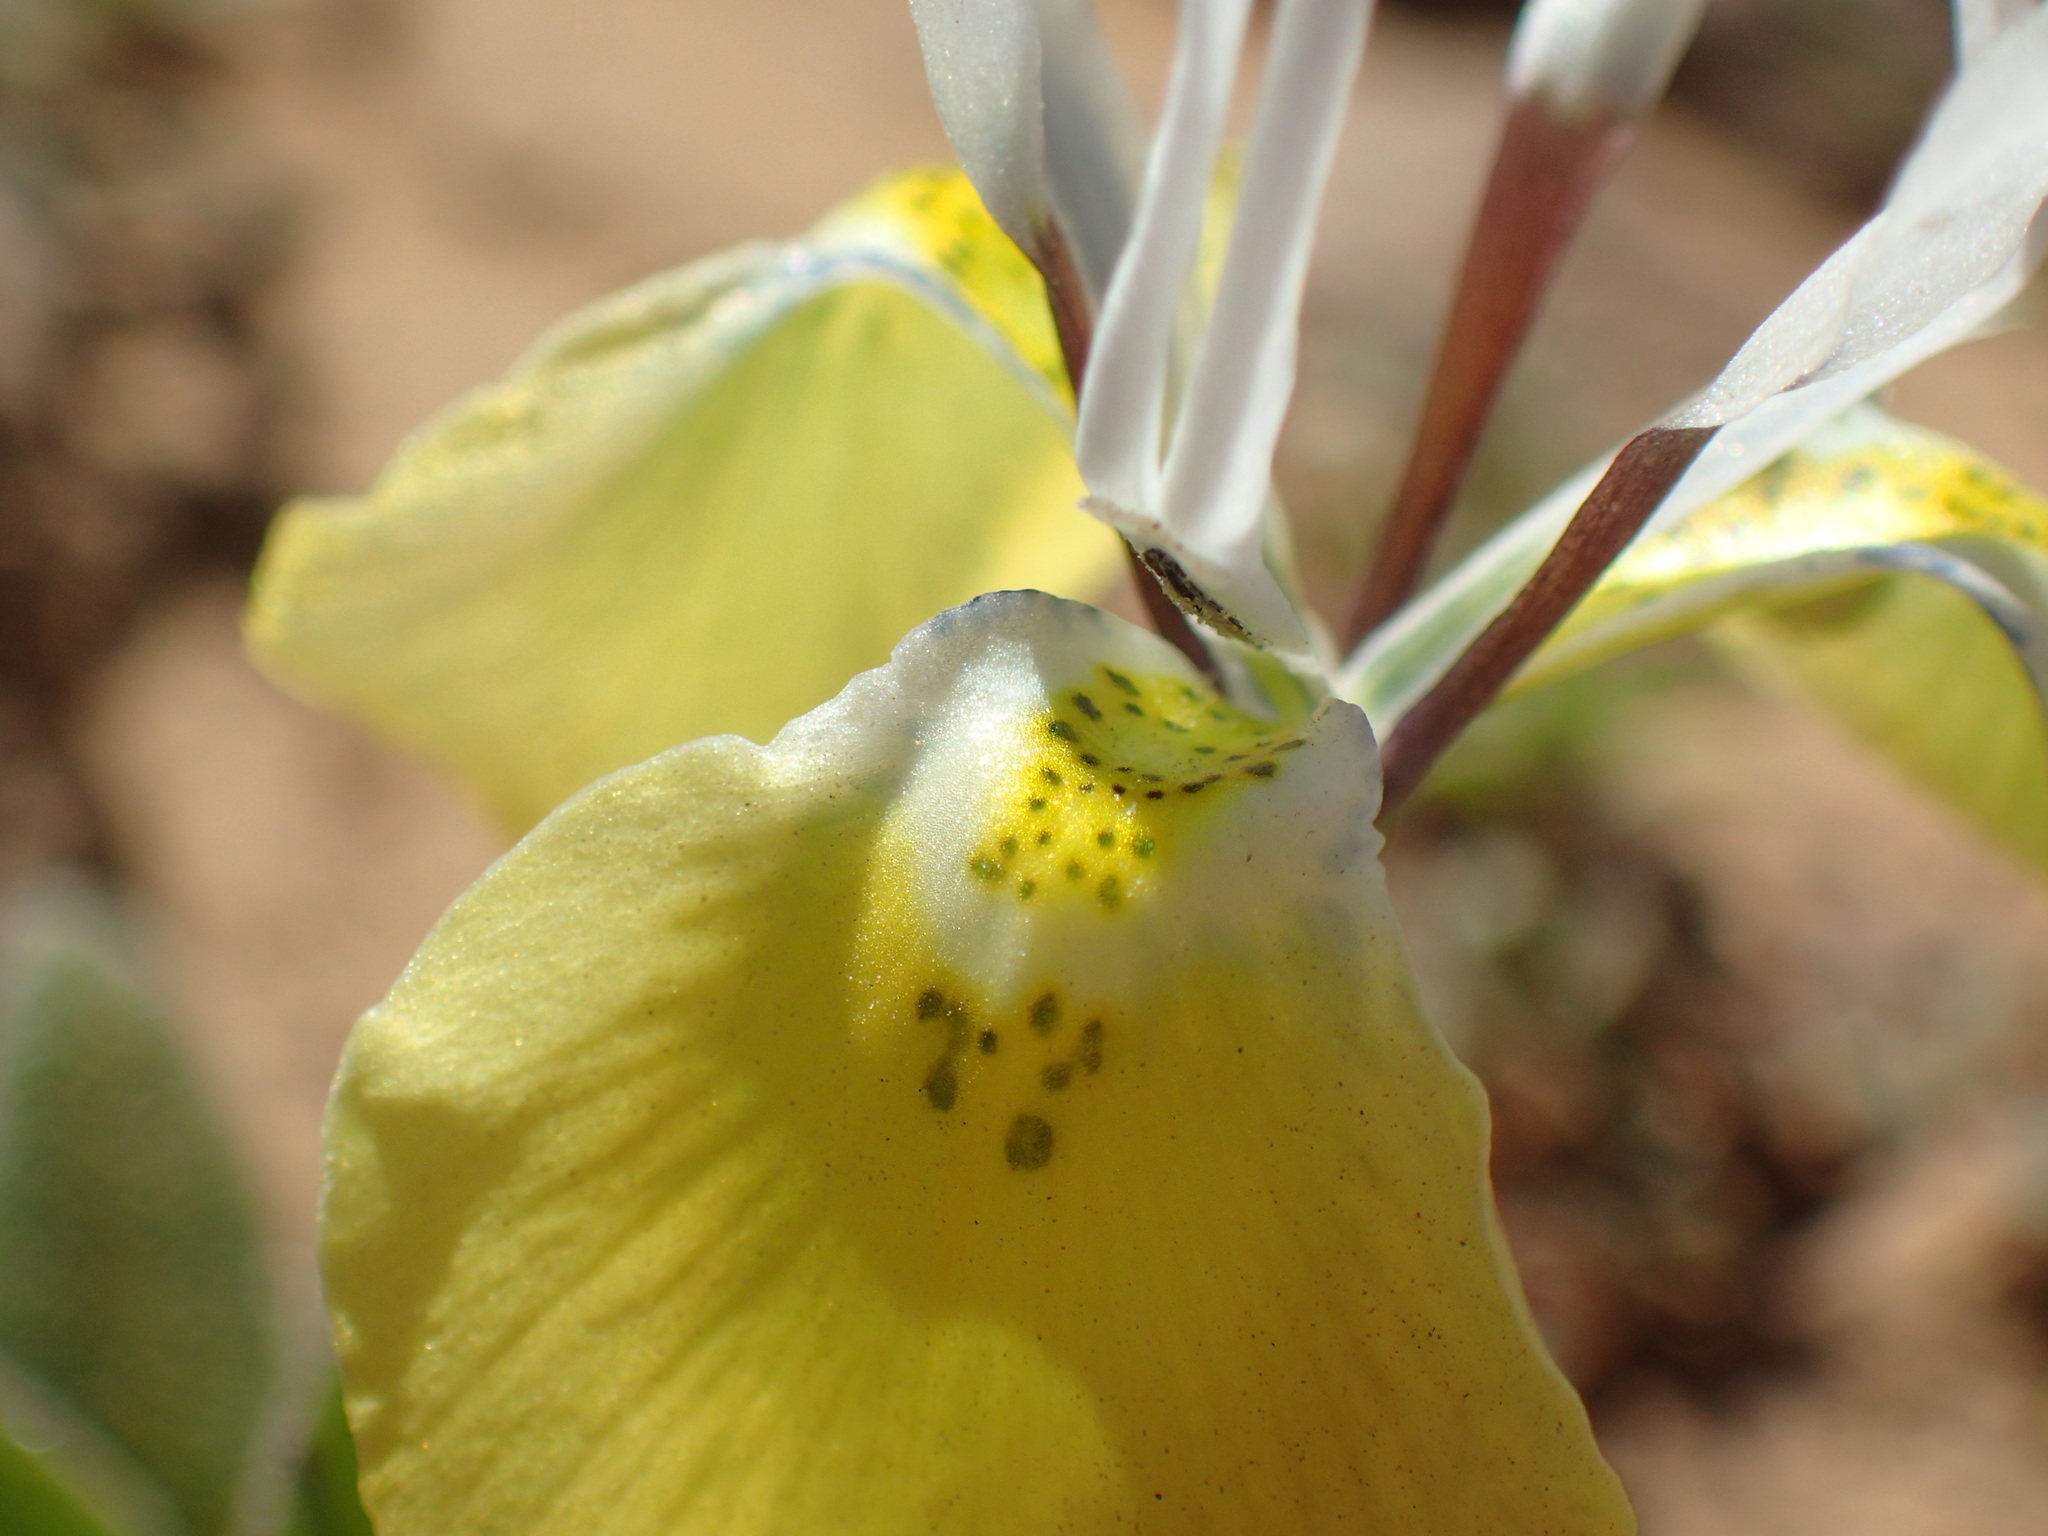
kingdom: Plantae
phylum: Tracheophyta
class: Liliopsida
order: Asparagales
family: Iridaceae
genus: Moraea
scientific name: Moraea flava
